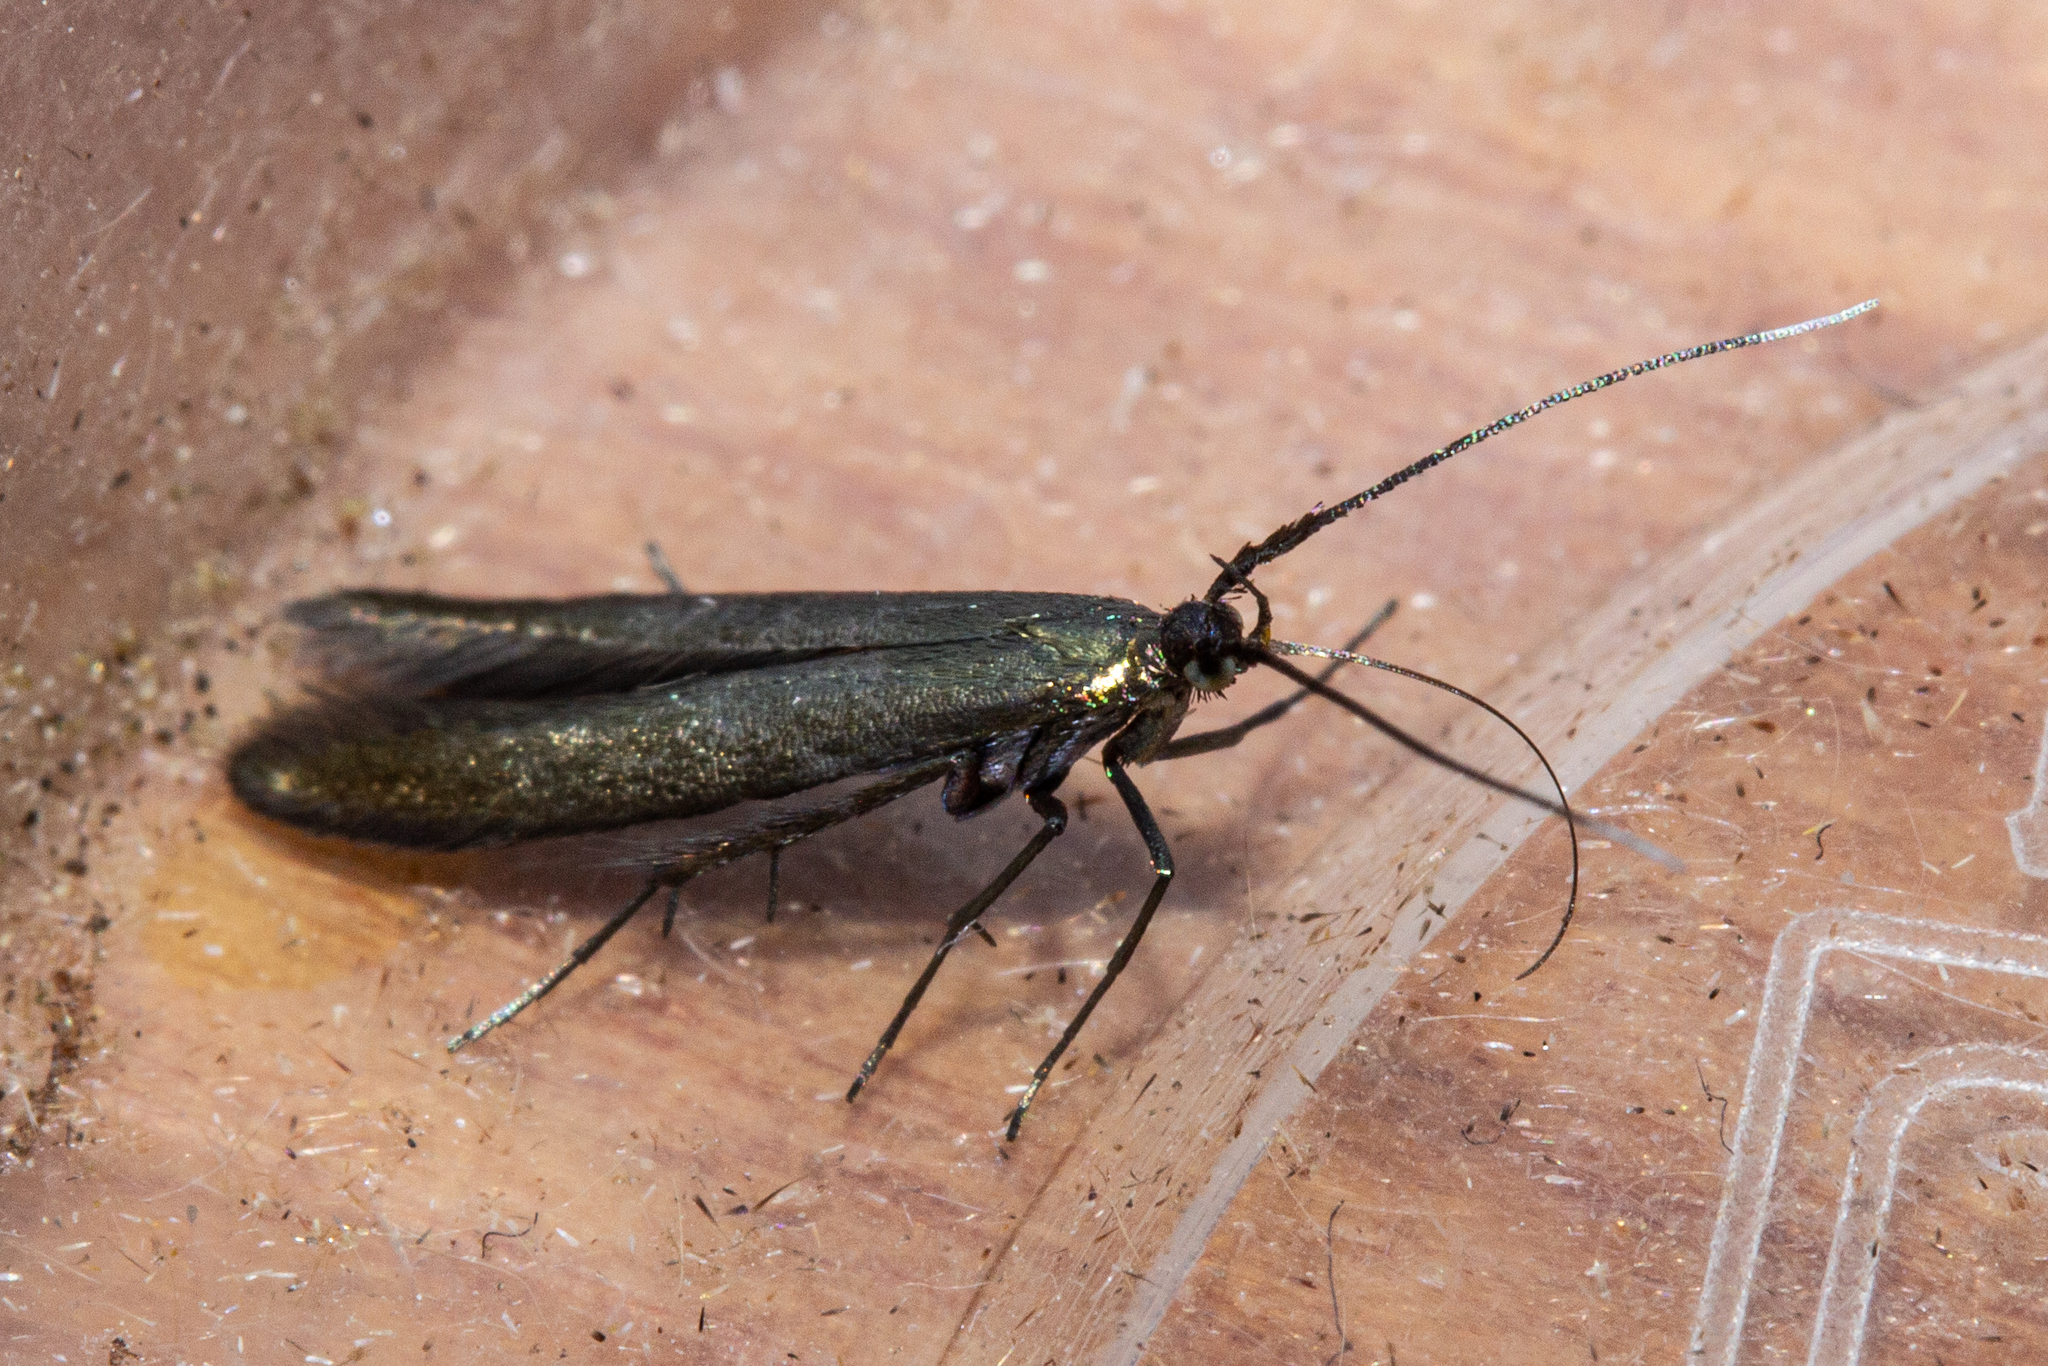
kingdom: Animalia
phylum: Arthropoda
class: Insecta
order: Lepidoptera
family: Coleophoridae
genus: Coleophora
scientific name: Coleophora alcyonipennella
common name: Clover case-bearer
